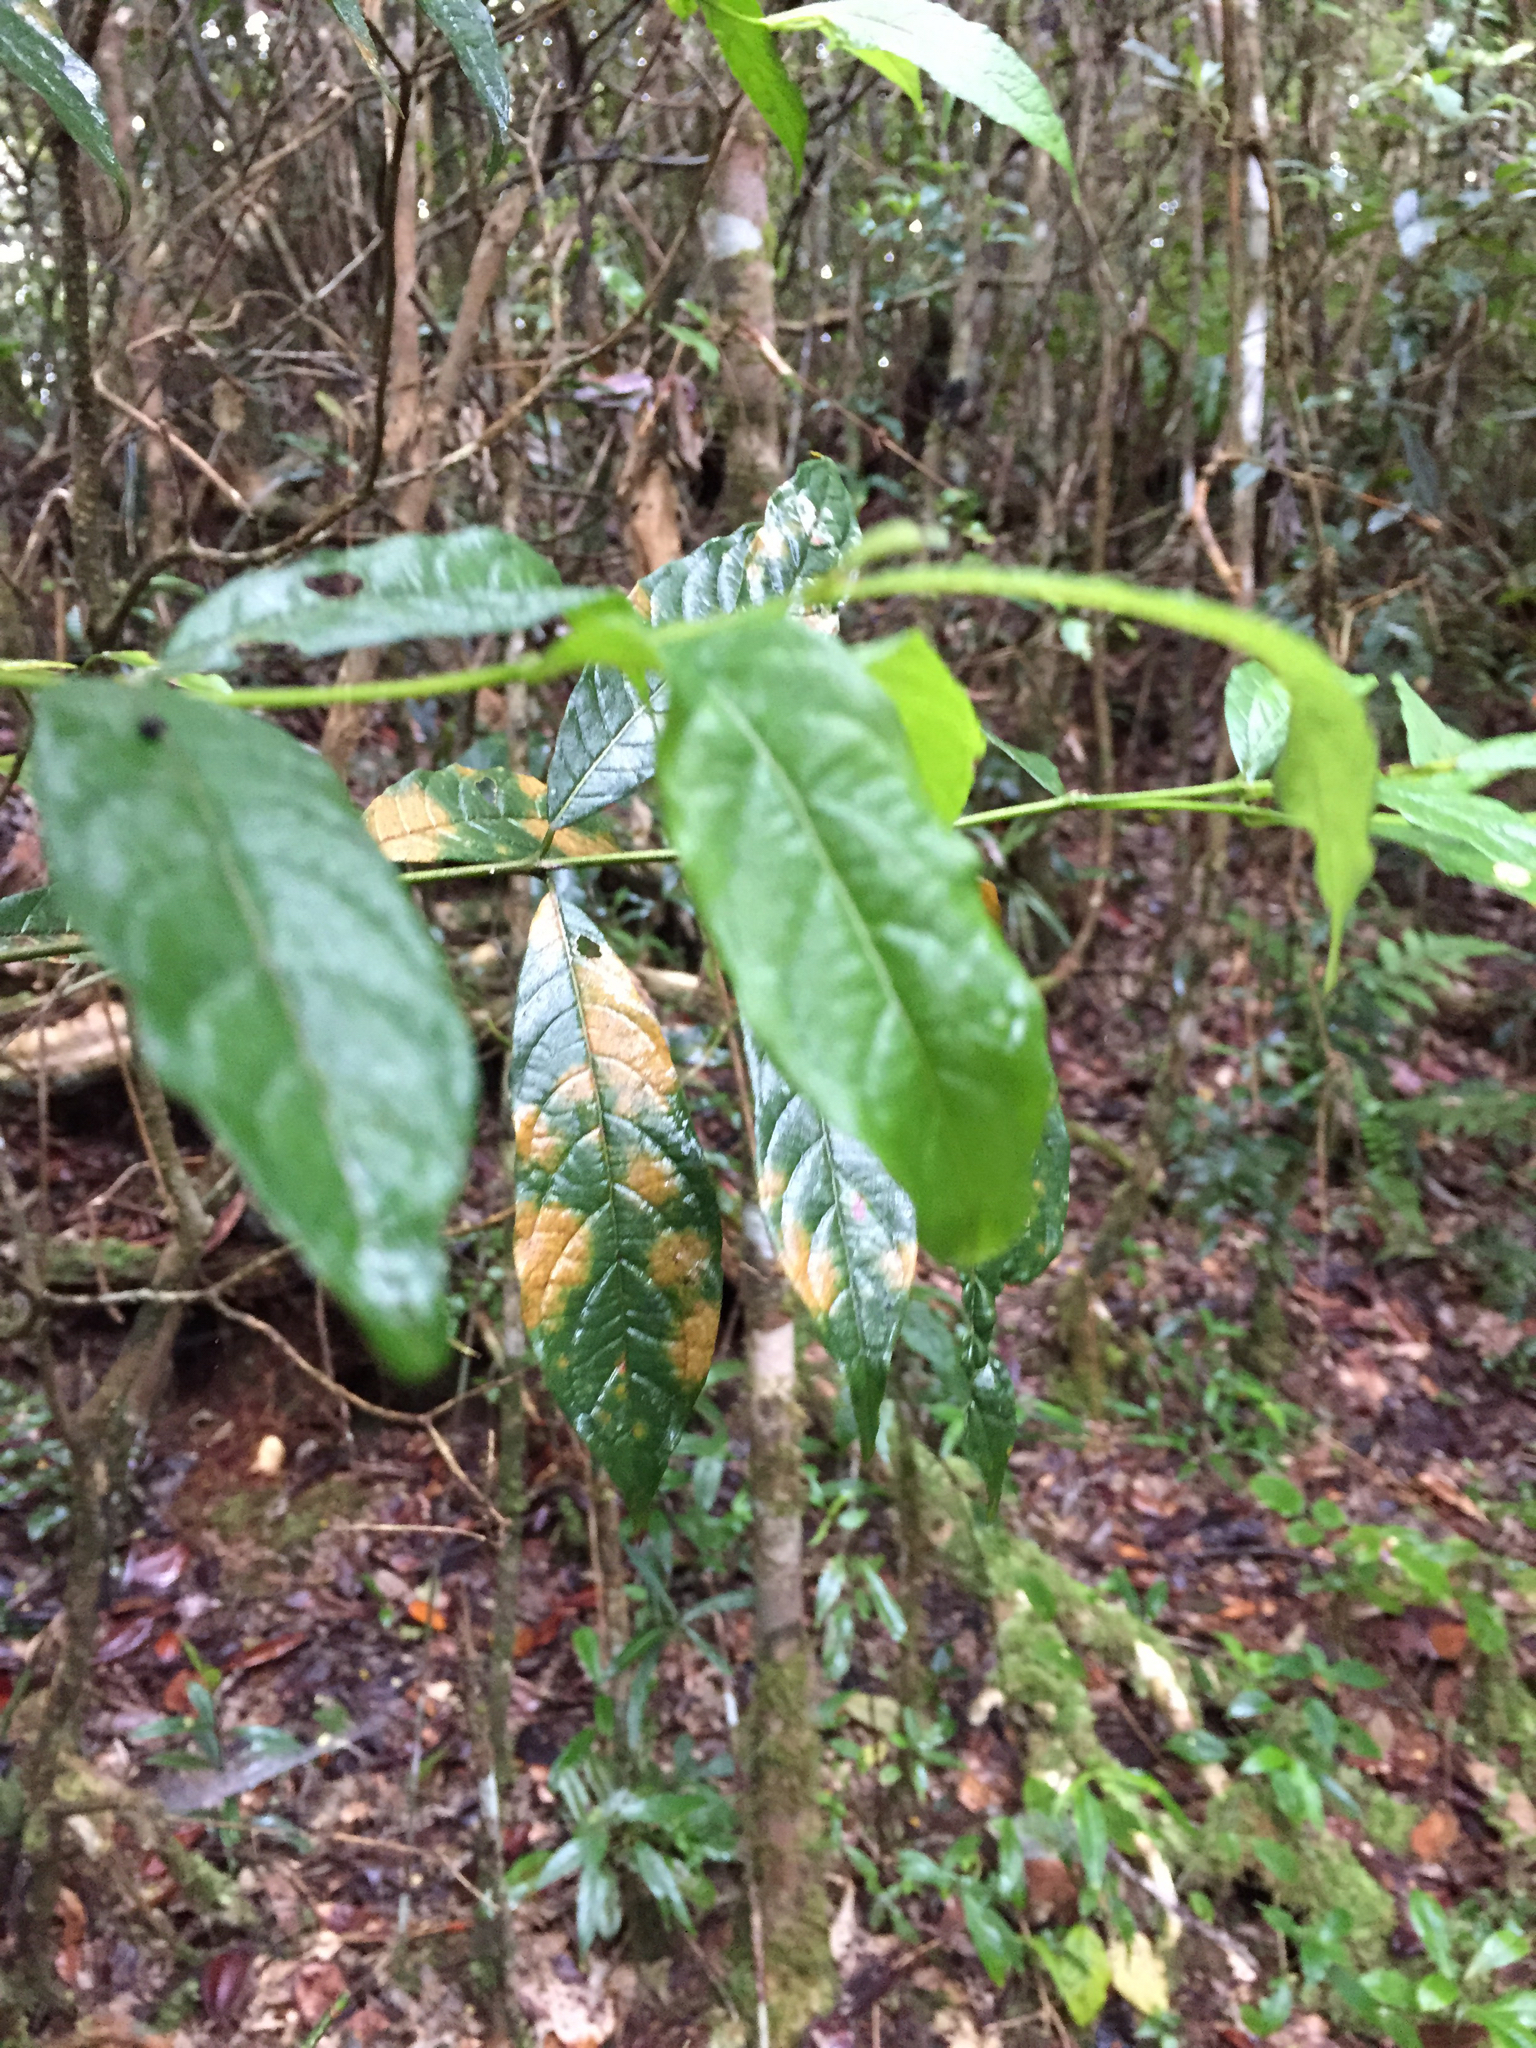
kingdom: Plantae
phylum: Tracheophyta
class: Magnoliopsida
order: Gentianales
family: Rubiaceae
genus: Pauridiantha
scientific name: Pauridiantha paucinervis
